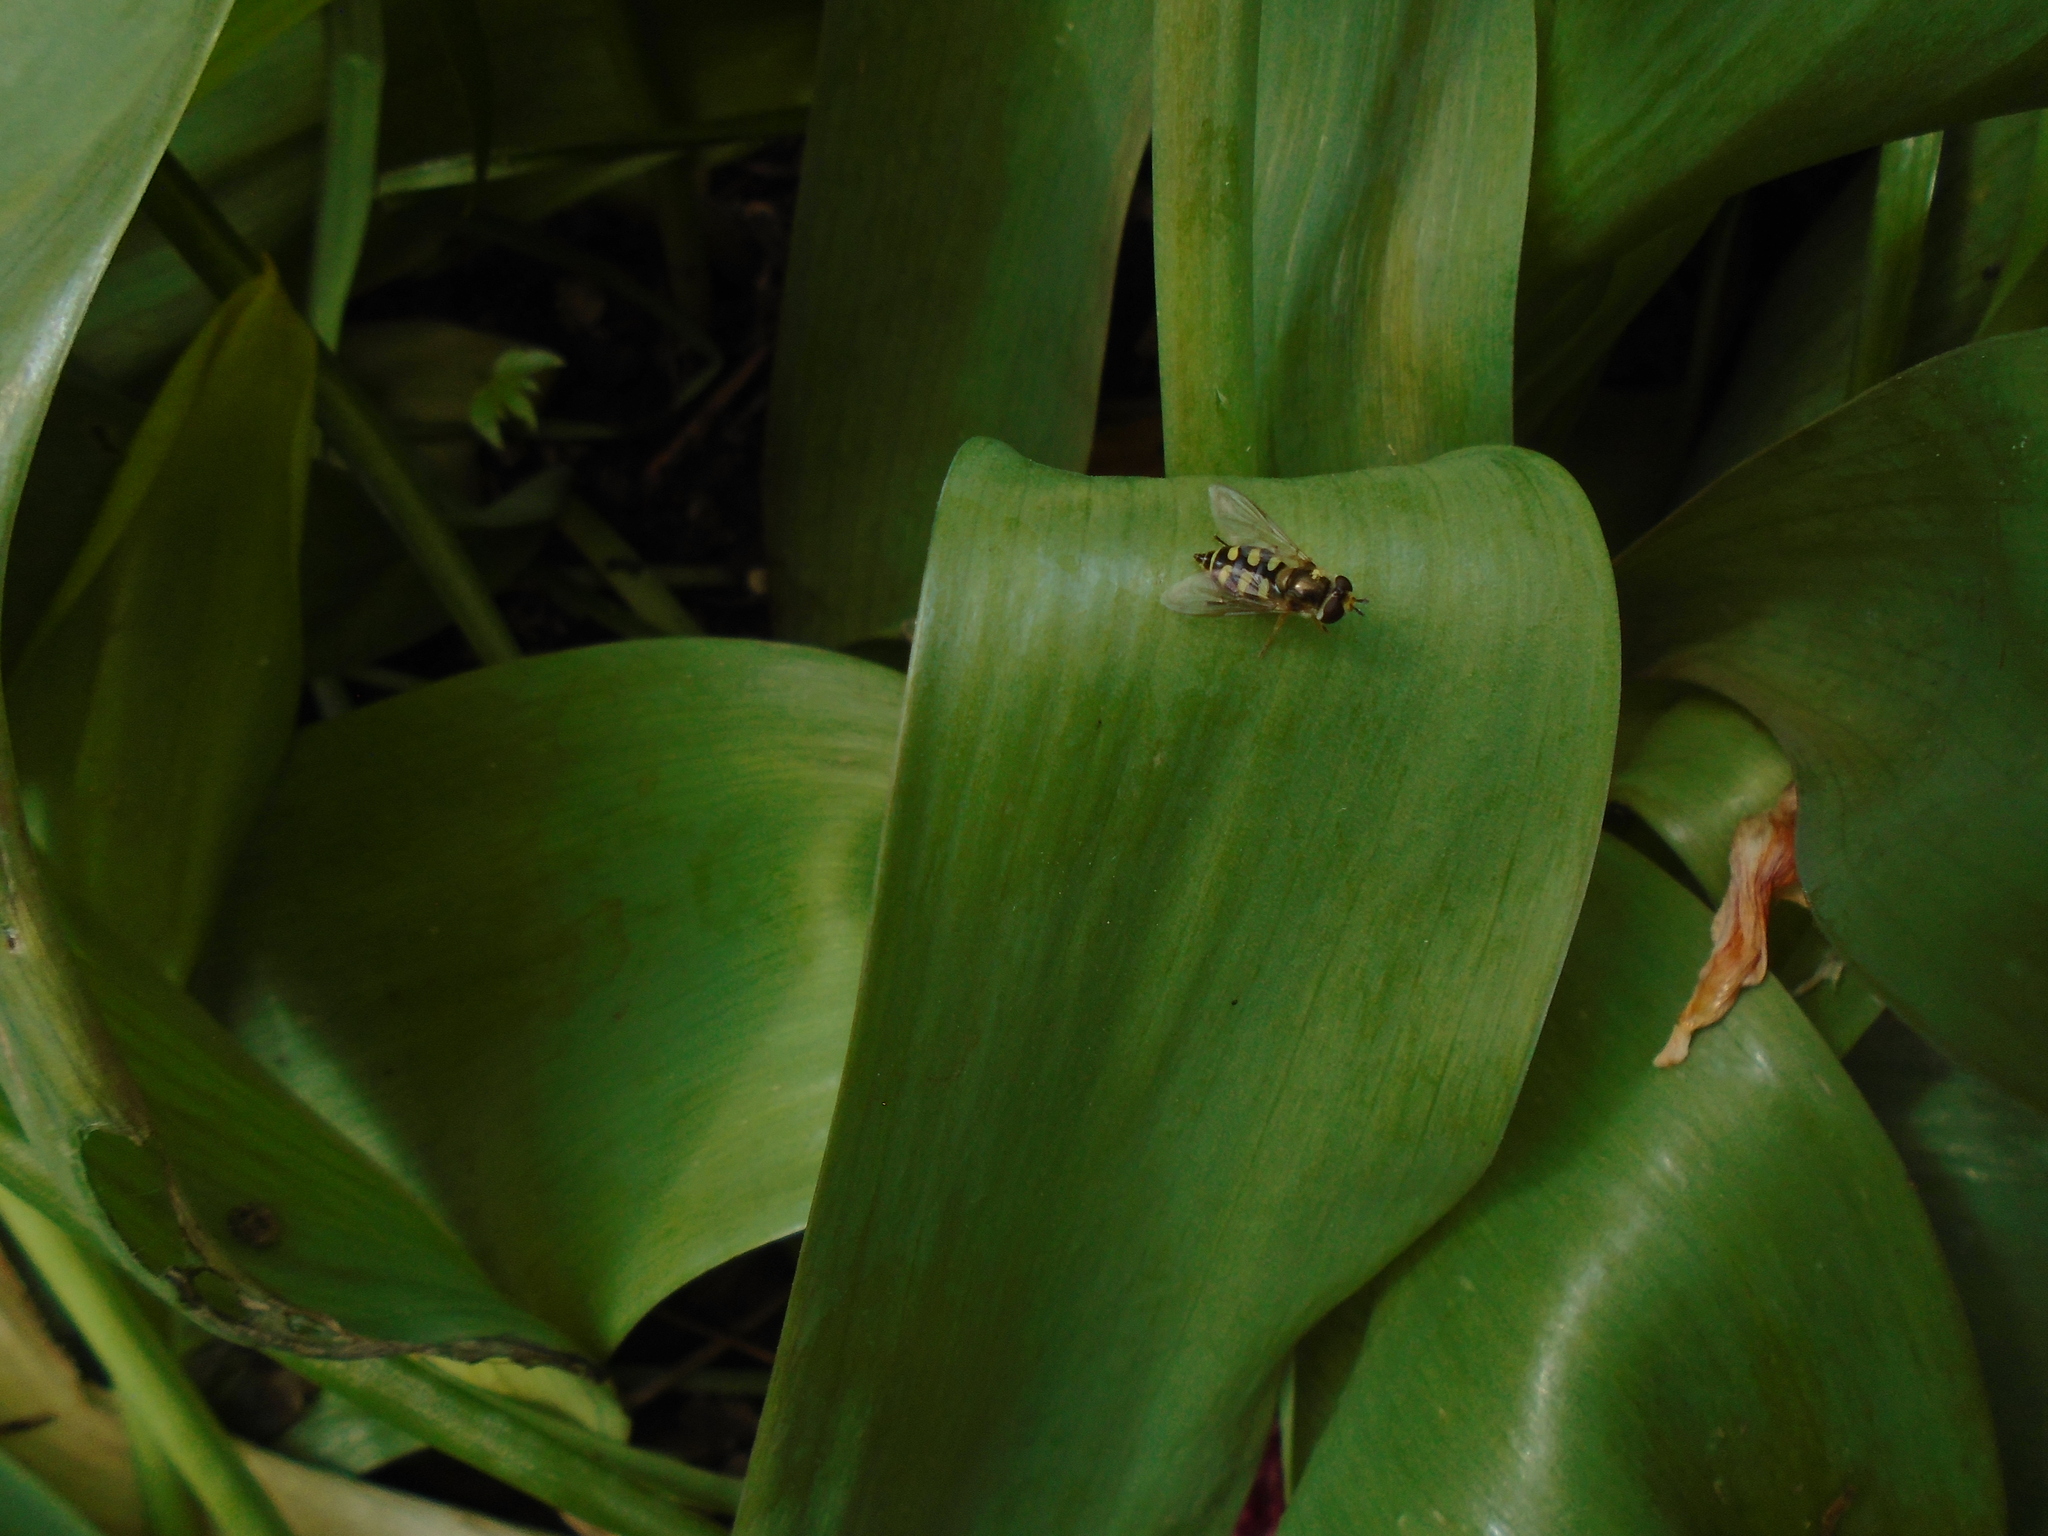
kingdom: Animalia
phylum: Arthropoda
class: Insecta
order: Diptera
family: Syrphidae
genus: Eupeodes
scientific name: Eupeodes corollae
